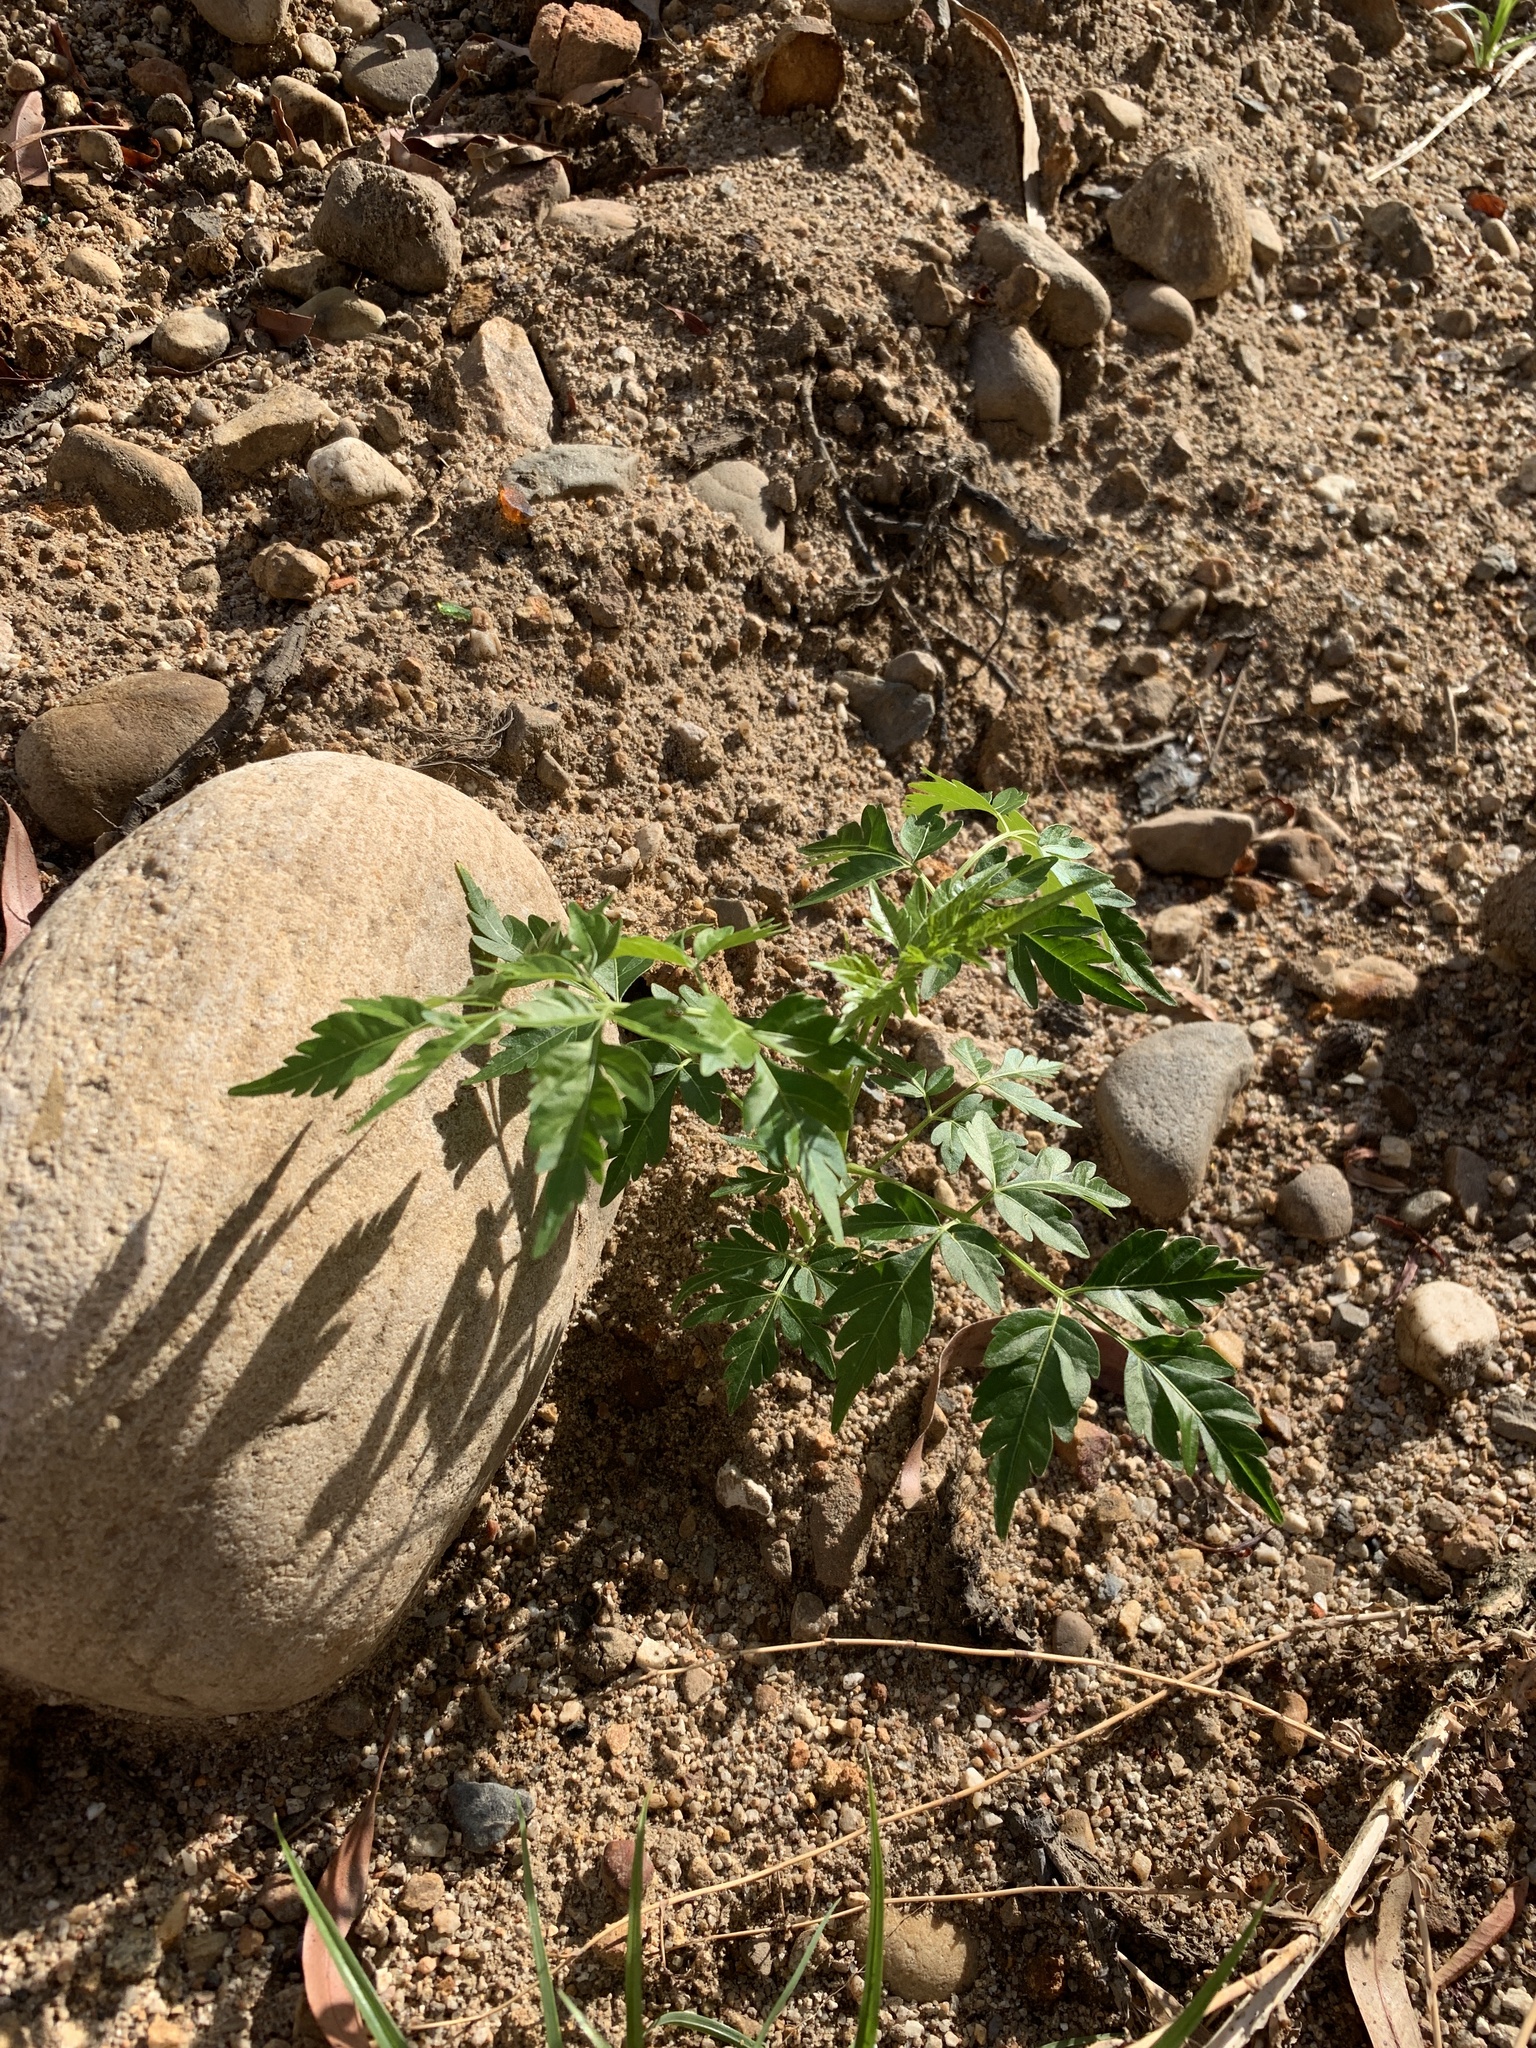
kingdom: Plantae
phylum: Tracheophyta
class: Magnoliopsida
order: Sapindales
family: Meliaceae
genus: Melia
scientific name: Melia azedarach
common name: Chinaberrytree
